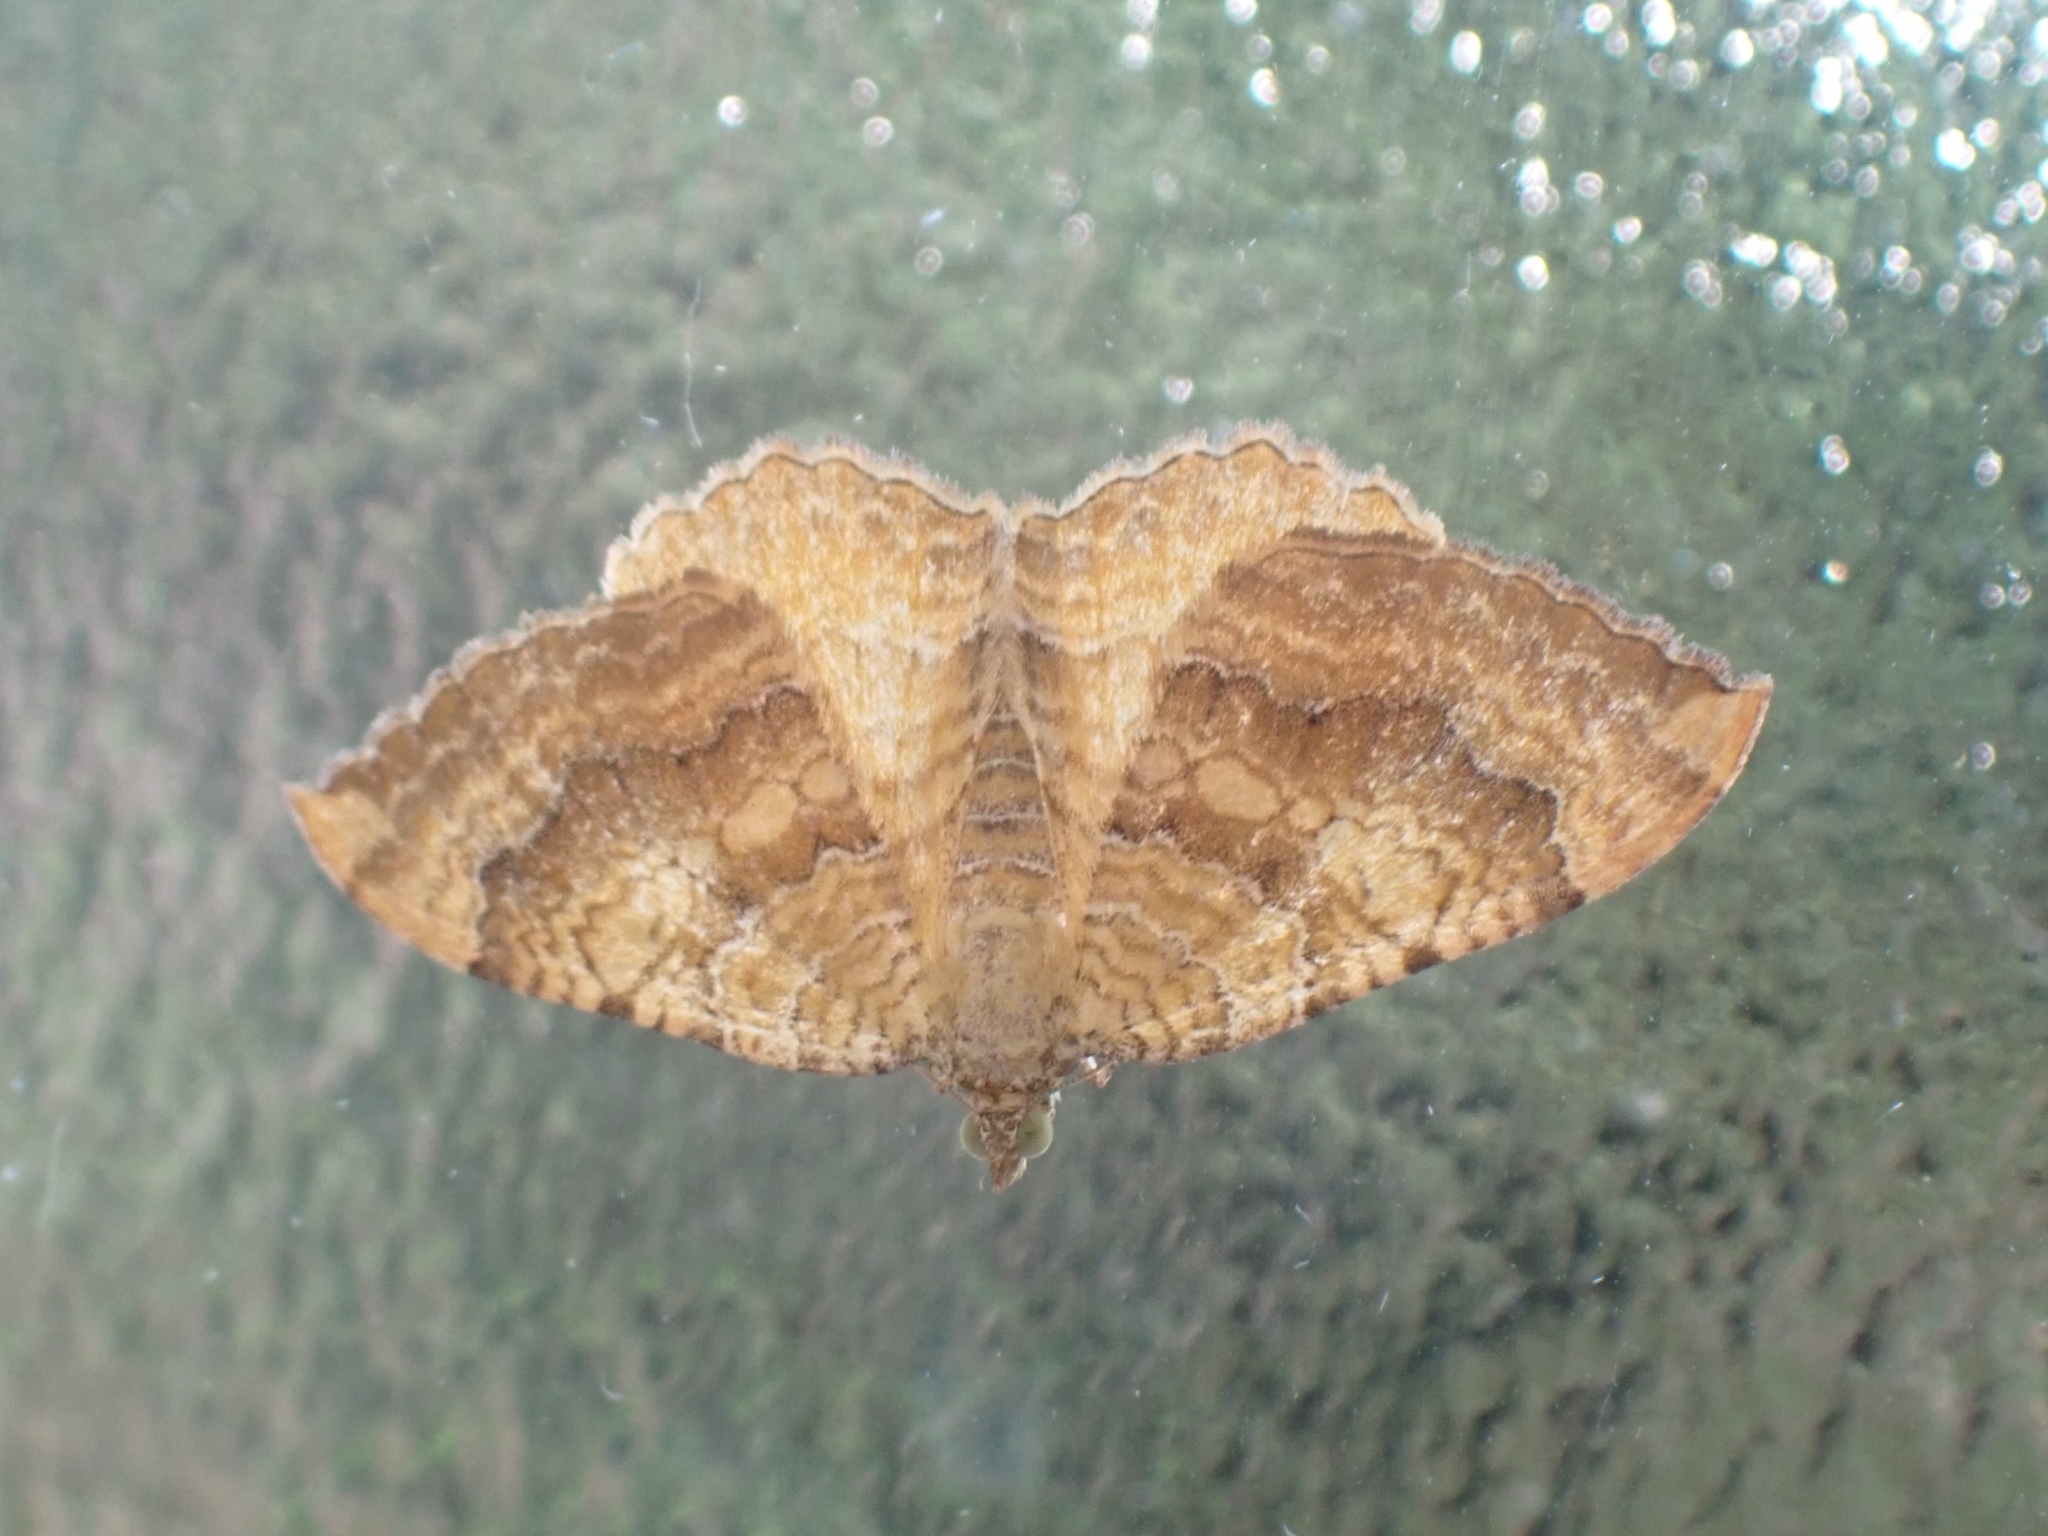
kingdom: Animalia
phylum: Arthropoda
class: Insecta
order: Lepidoptera
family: Geometridae
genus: Camptogramma
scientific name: Camptogramma bilineata
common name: Yellow shell
